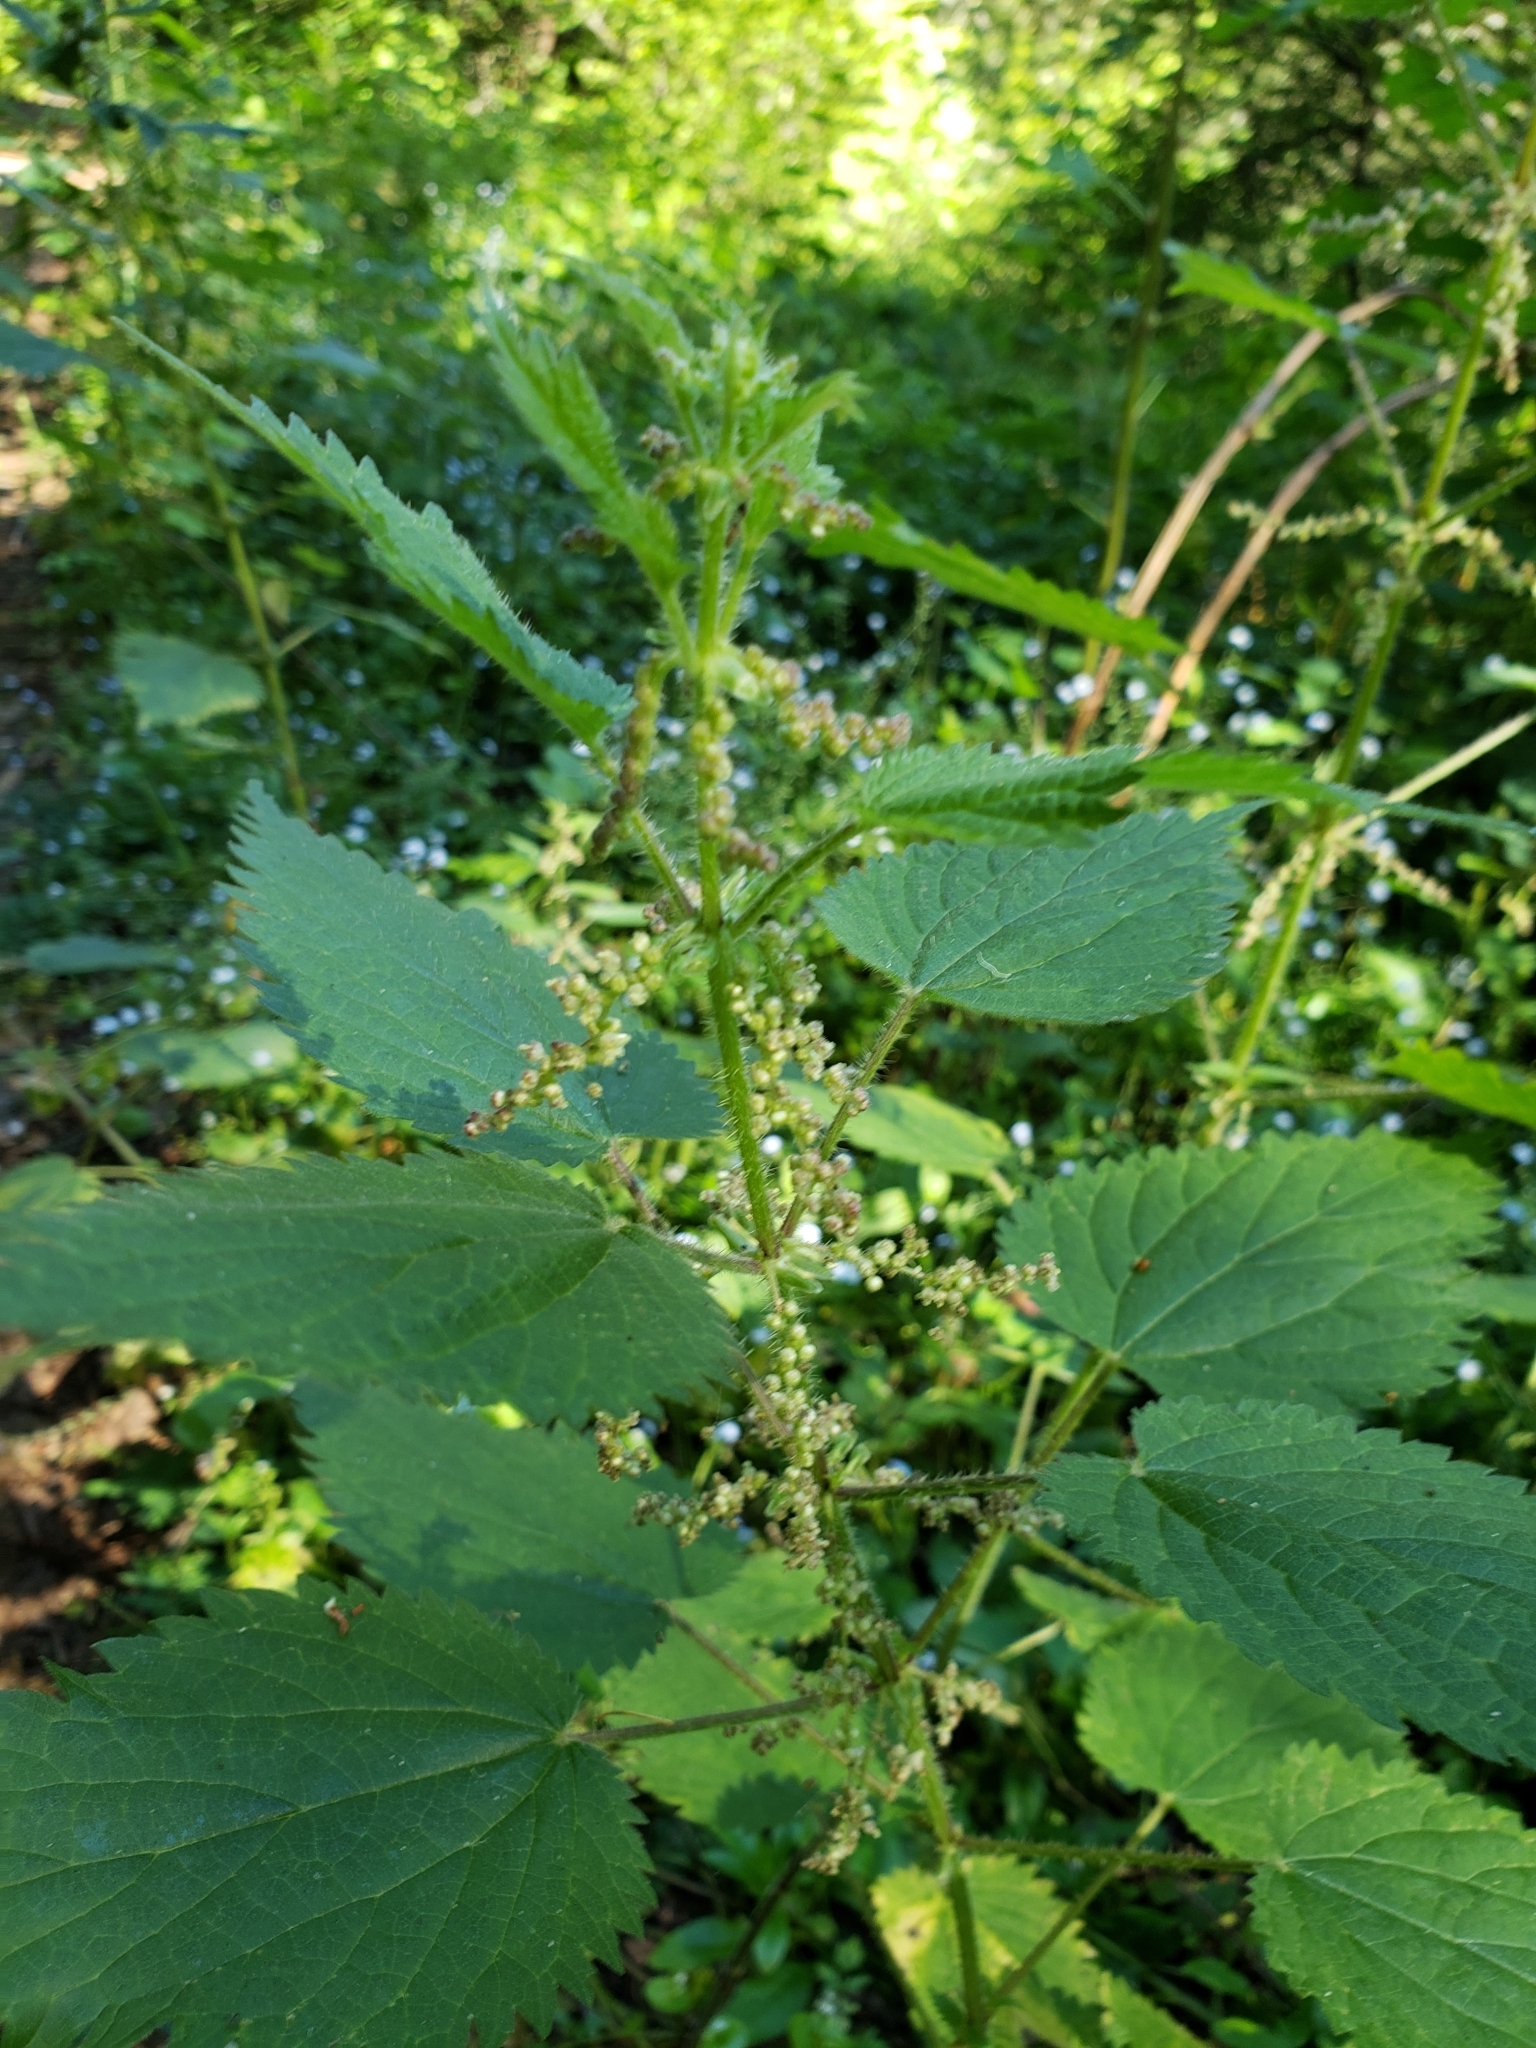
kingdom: Plantae
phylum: Tracheophyta
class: Magnoliopsida
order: Rosales
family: Urticaceae
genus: Urtica
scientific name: Urtica dioica
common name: Common nettle
